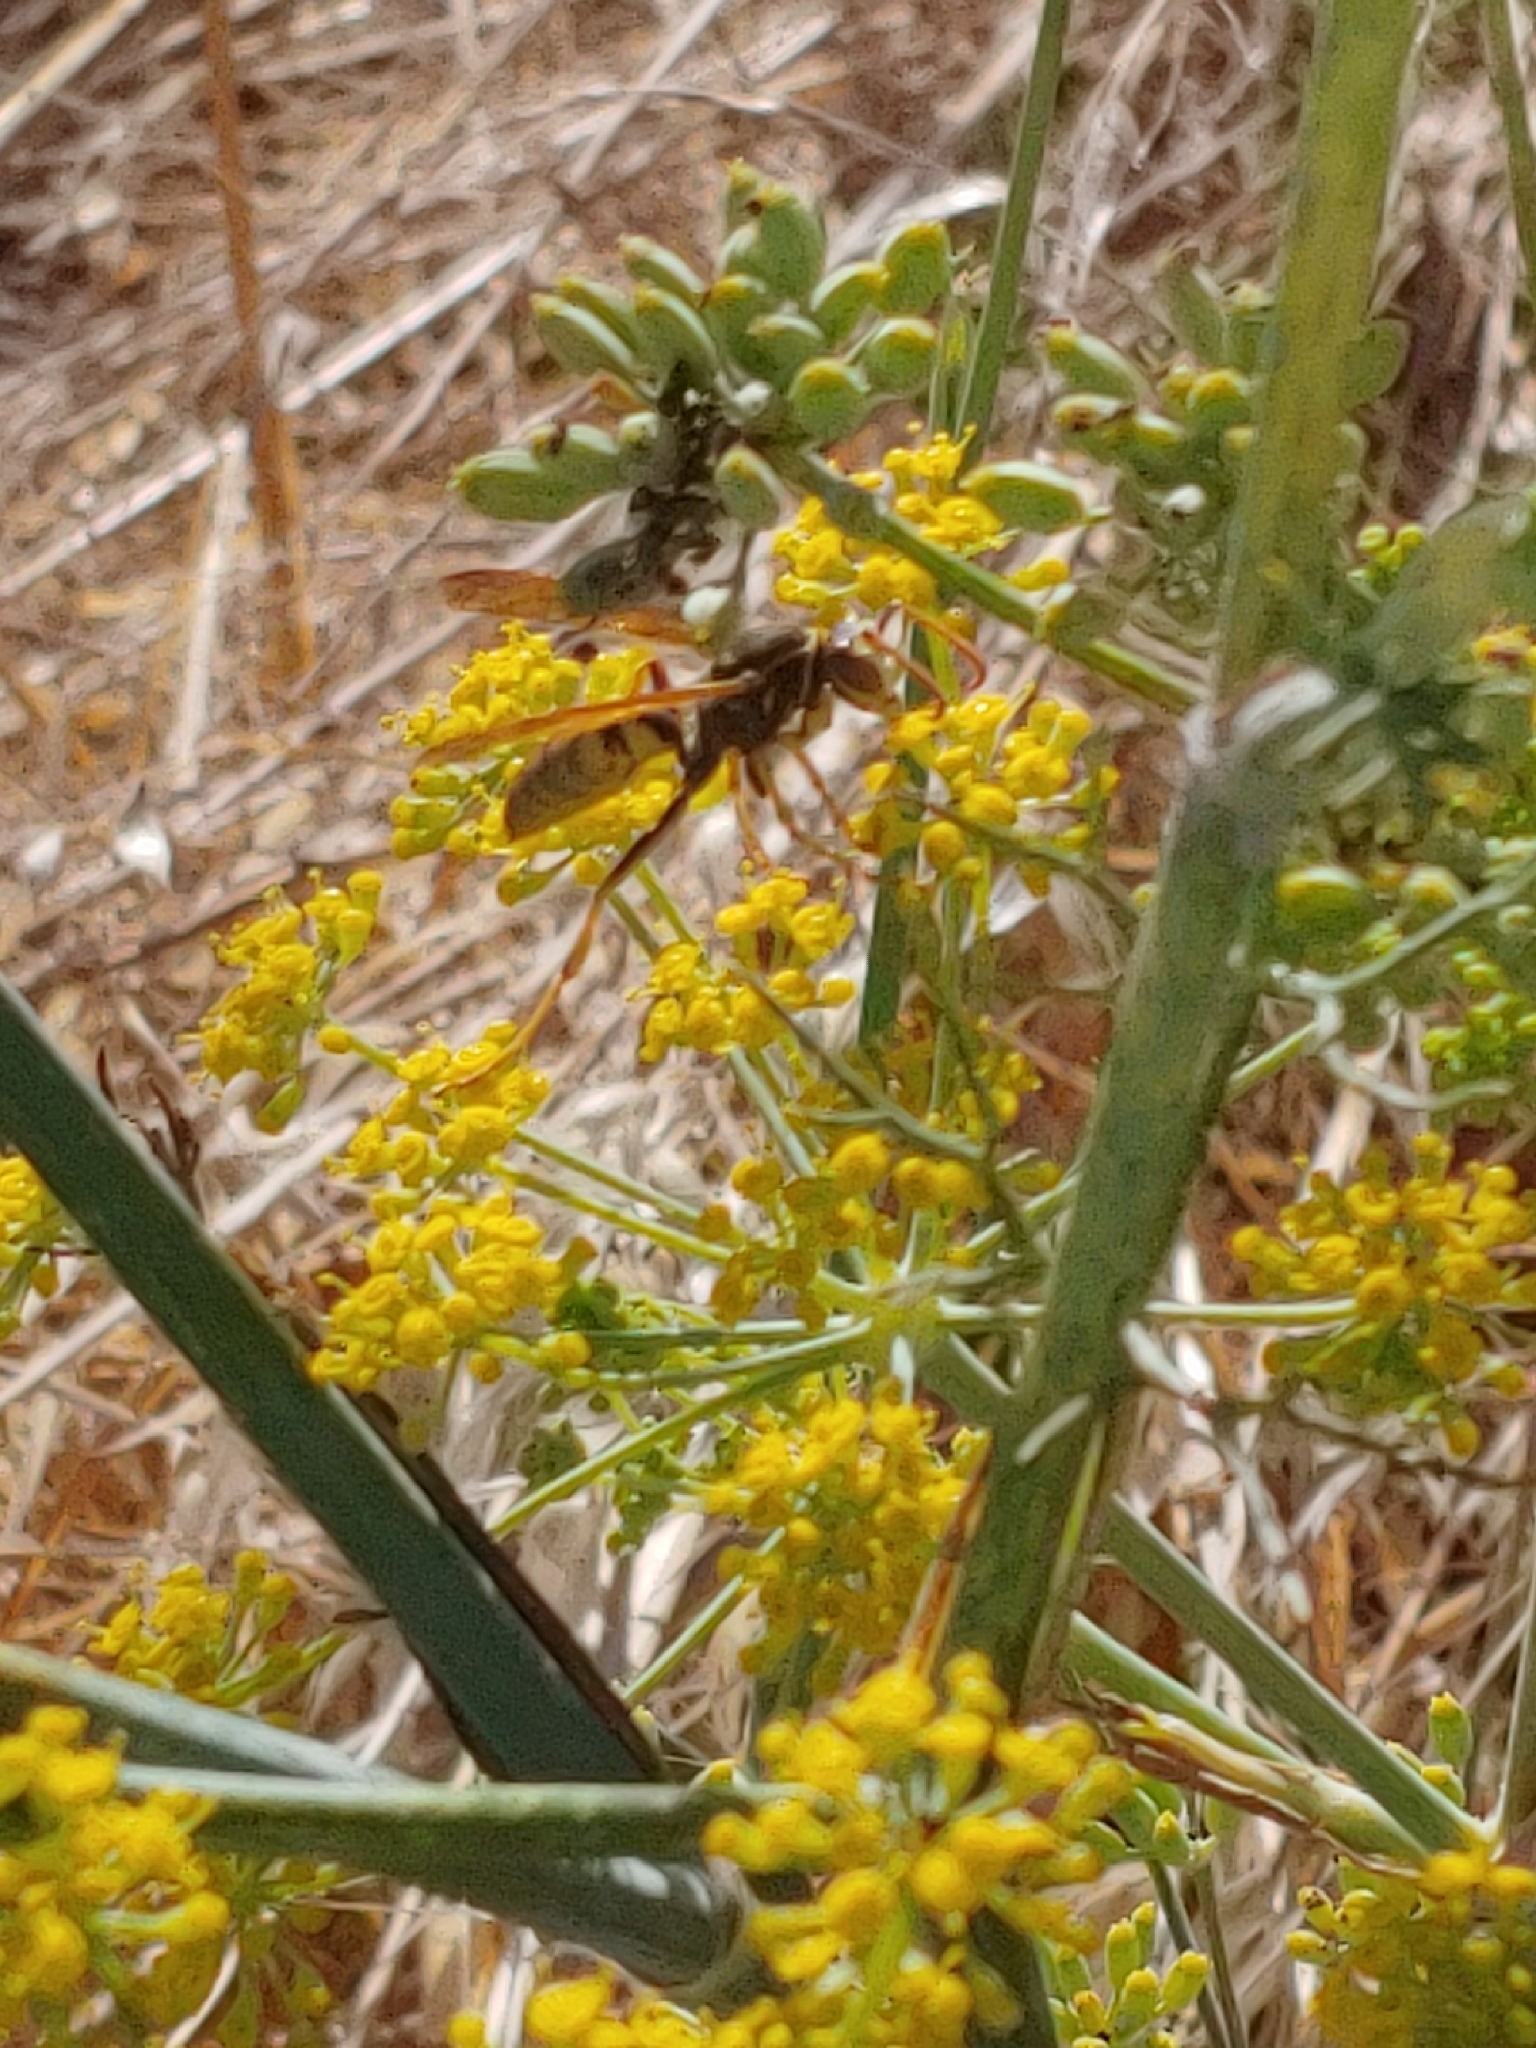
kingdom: Animalia
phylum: Arthropoda
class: Insecta
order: Hymenoptera
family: Eumenidae
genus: Polistes
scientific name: Polistes aurifer
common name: Paper wasp
